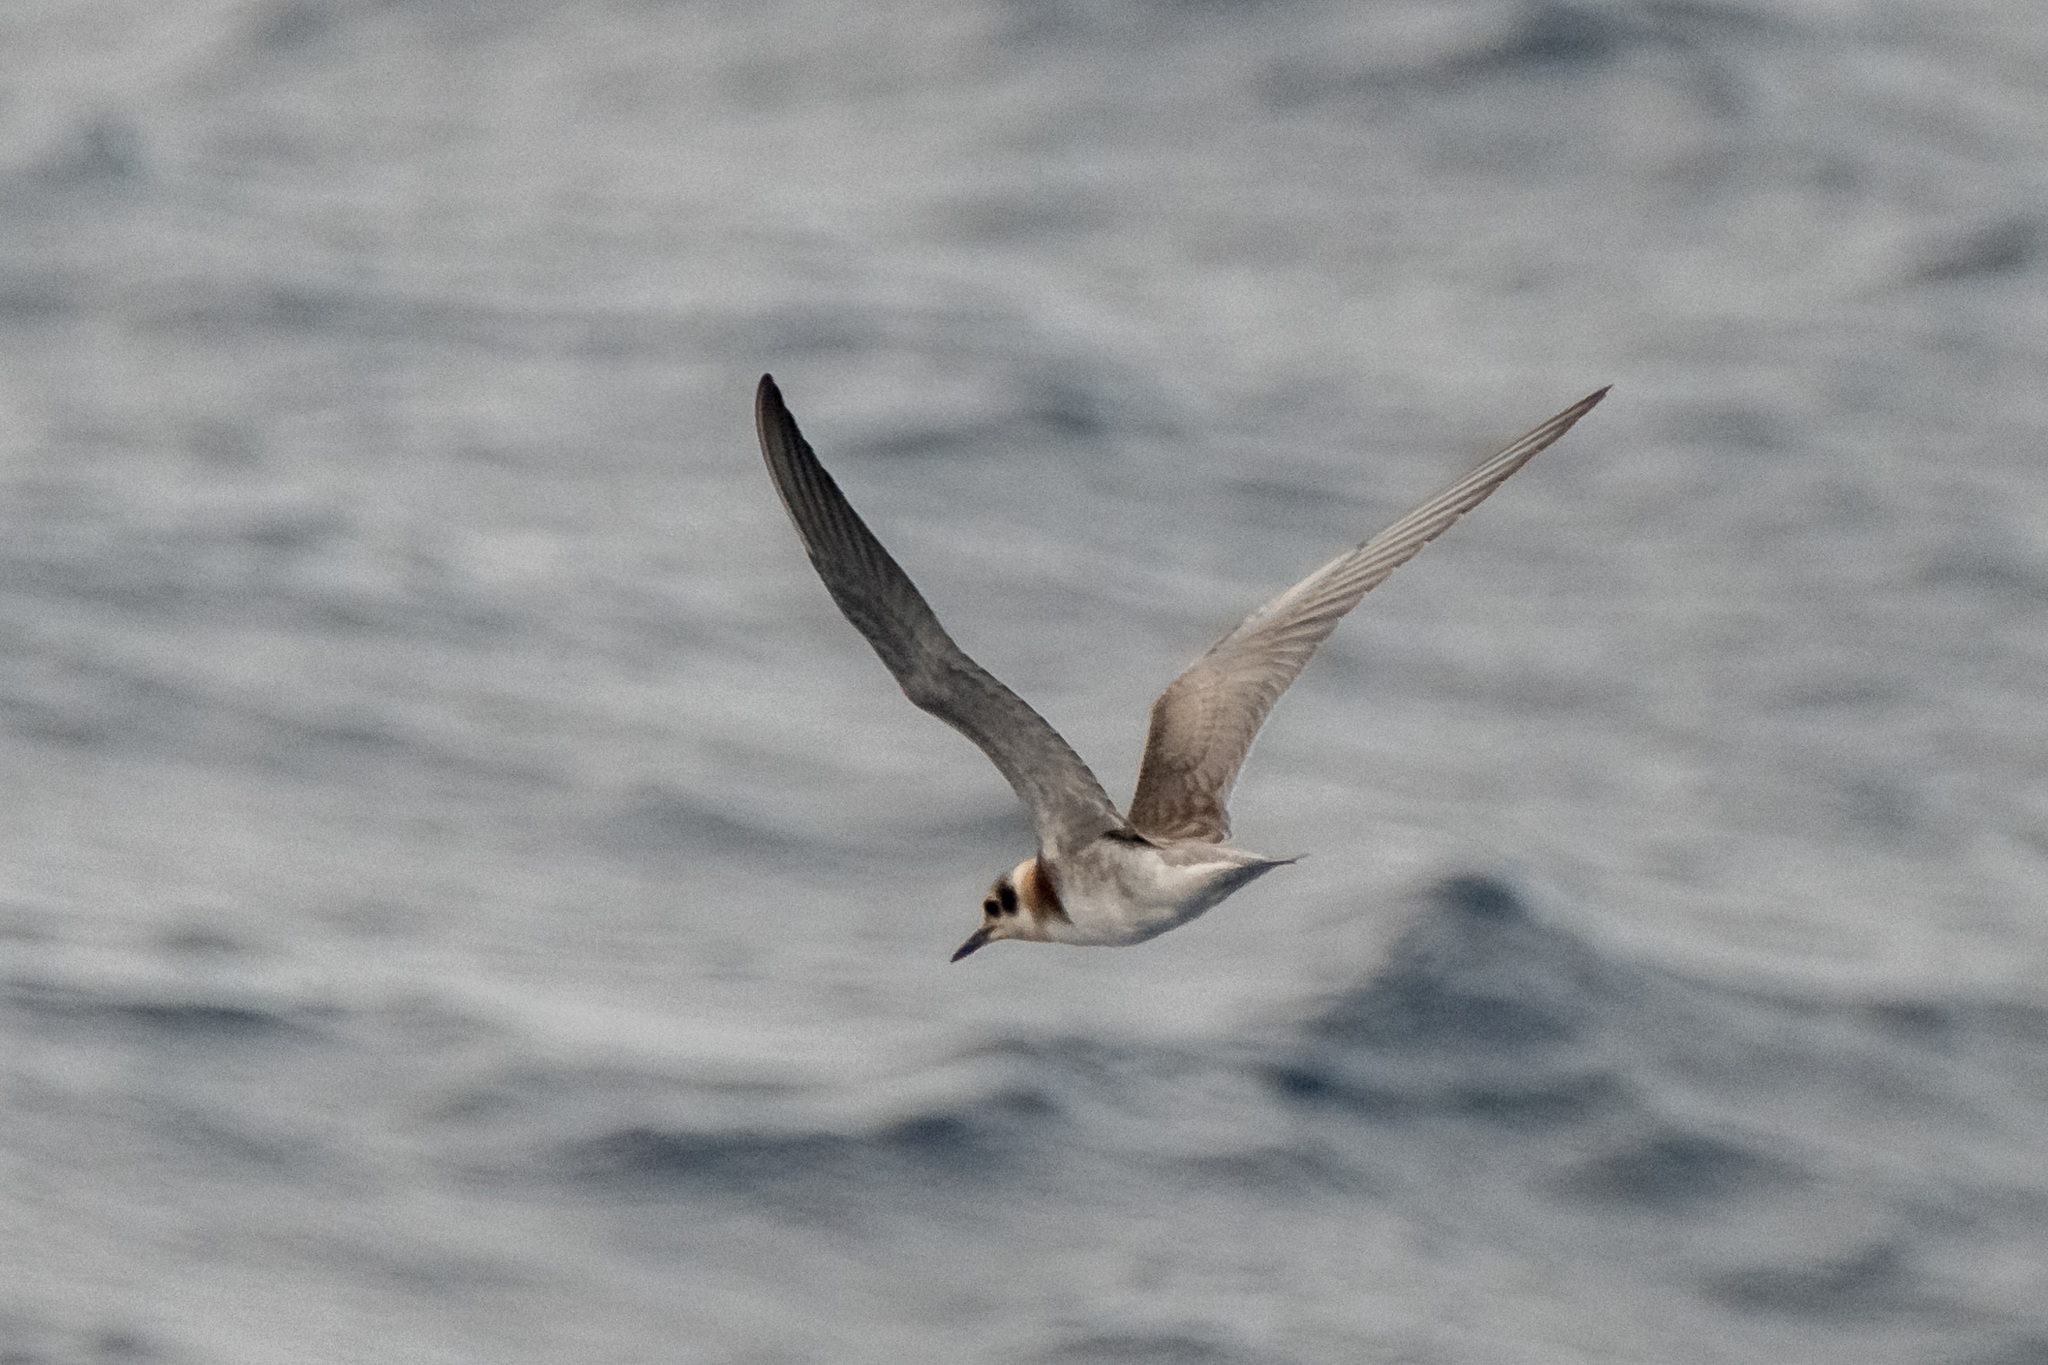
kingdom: Animalia
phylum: Chordata
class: Aves
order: Charadriiformes
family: Laridae
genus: Chlidonias
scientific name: Chlidonias niger
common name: Black tern
